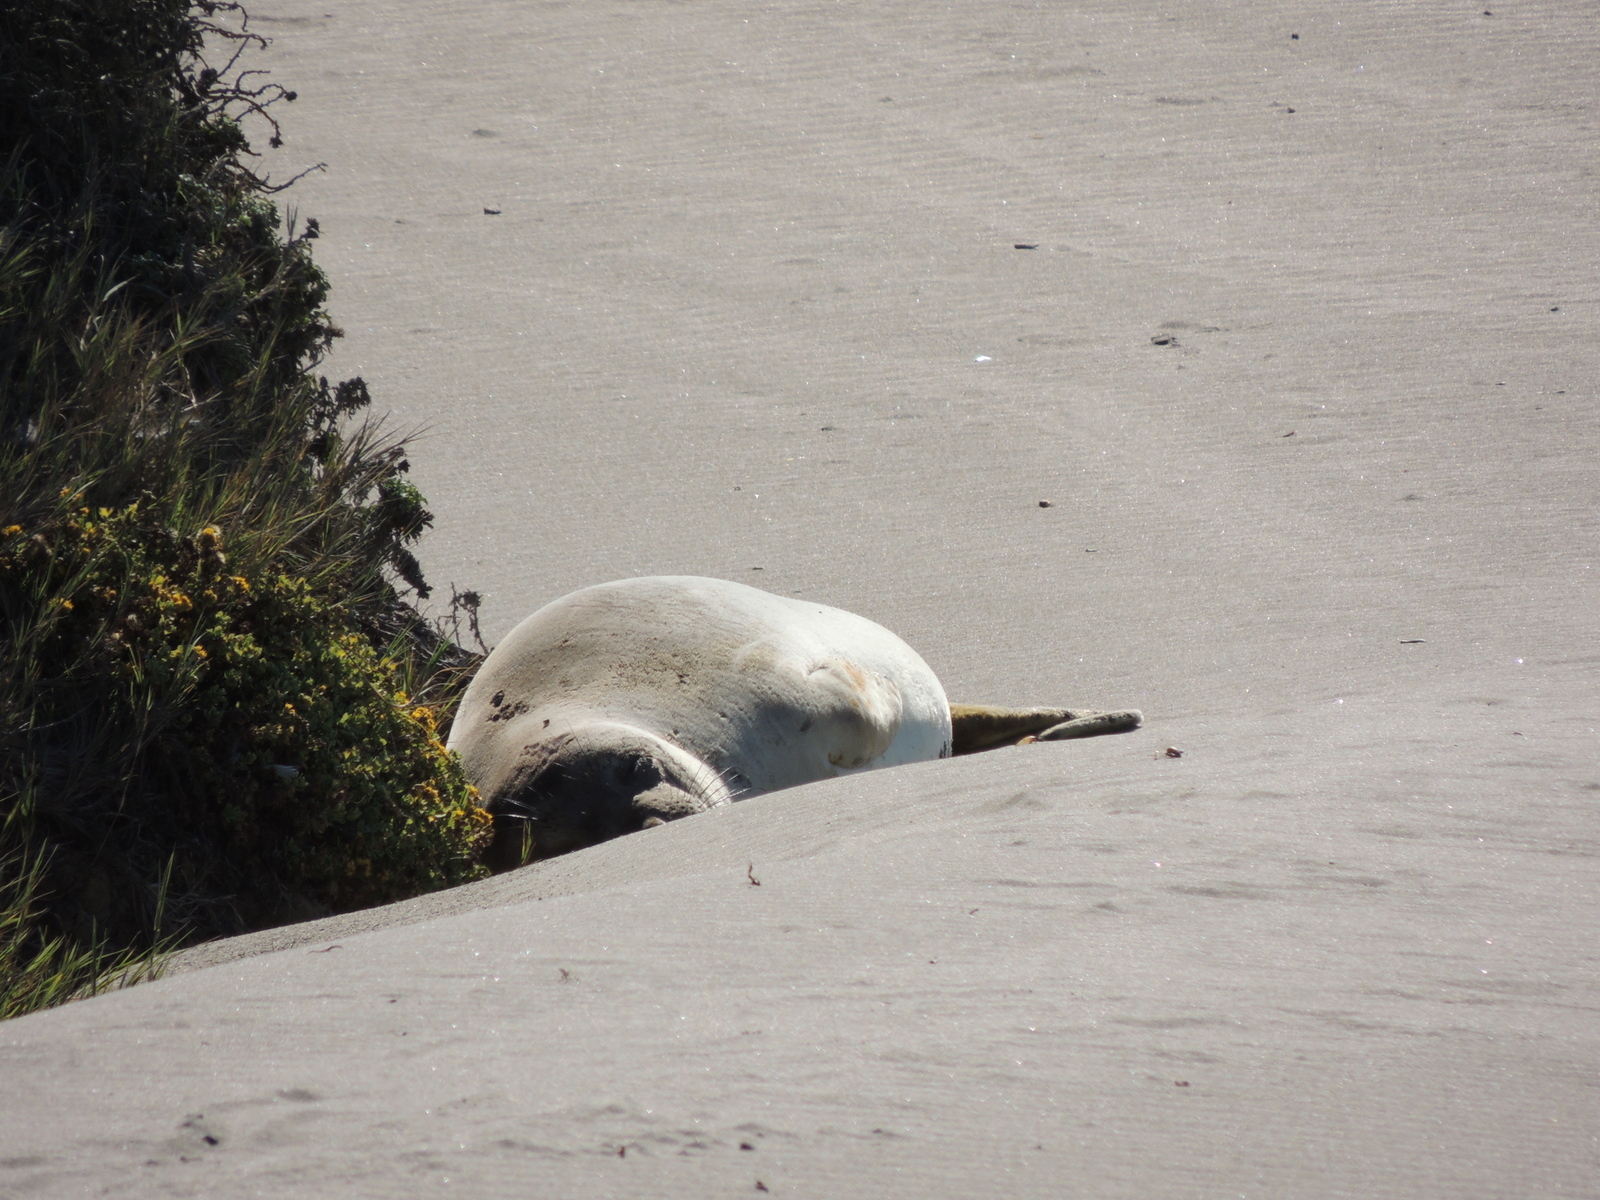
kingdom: Animalia
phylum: Chordata
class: Mammalia
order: Carnivora
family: Phocidae
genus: Mirounga
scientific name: Mirounga angustirostris
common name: Northern elephant seal
